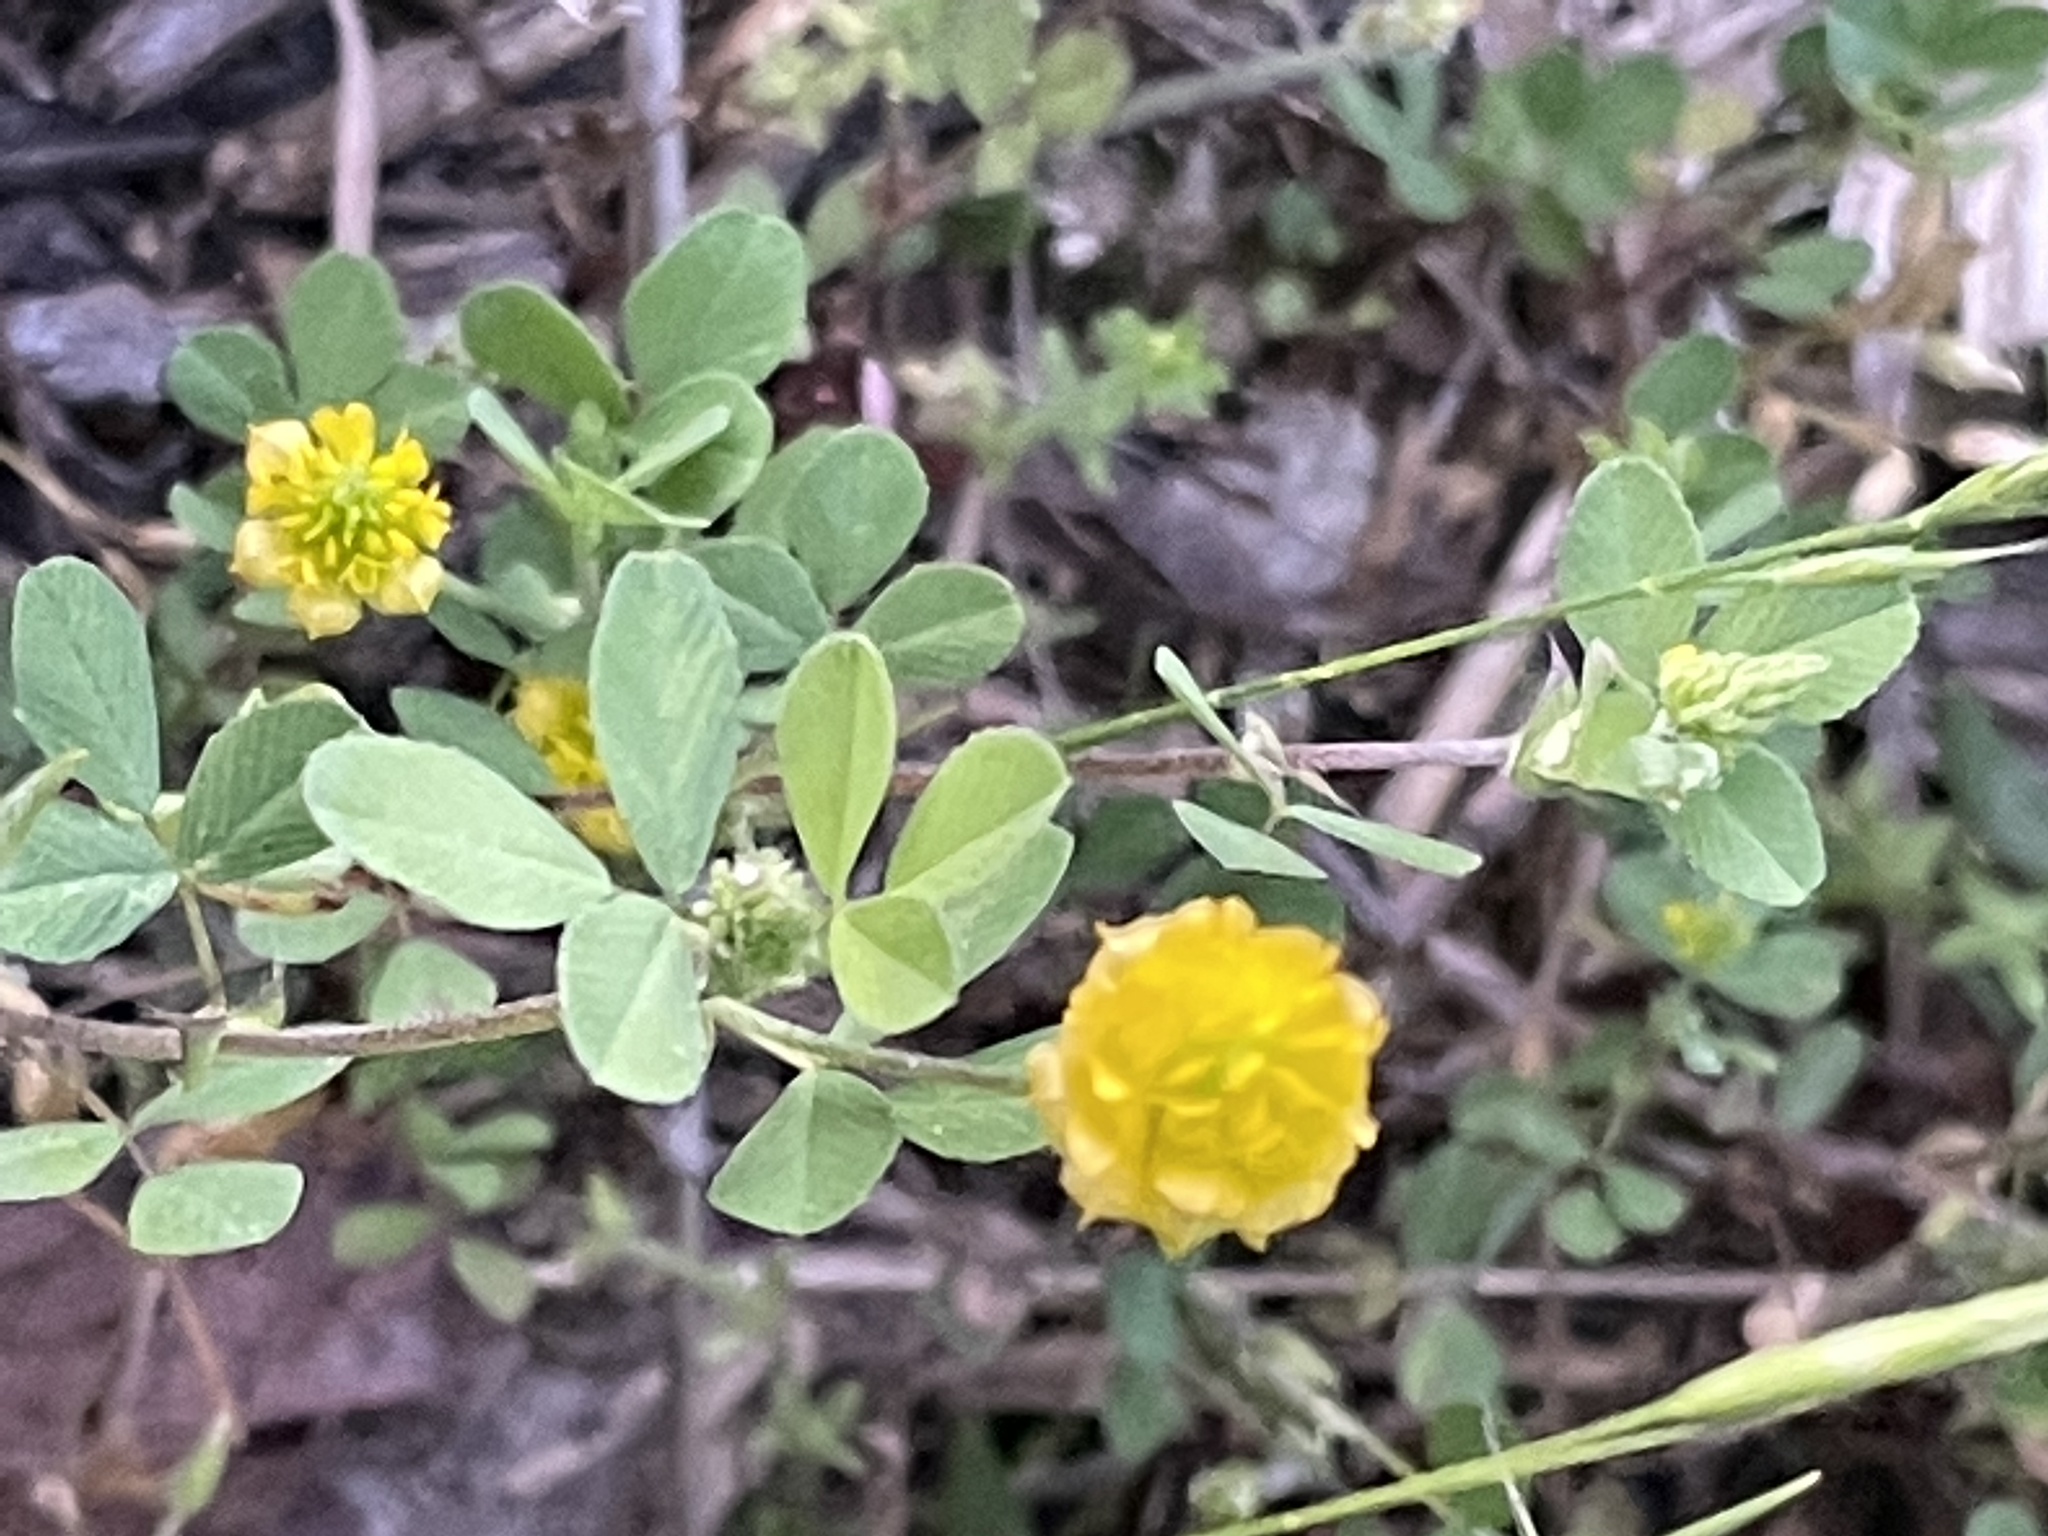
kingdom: Plantae
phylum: Tracheophyta
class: Magnoliopsida
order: Fabales
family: Fabaceae
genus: Trifolium
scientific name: Trifolium campestre
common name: Field clover
